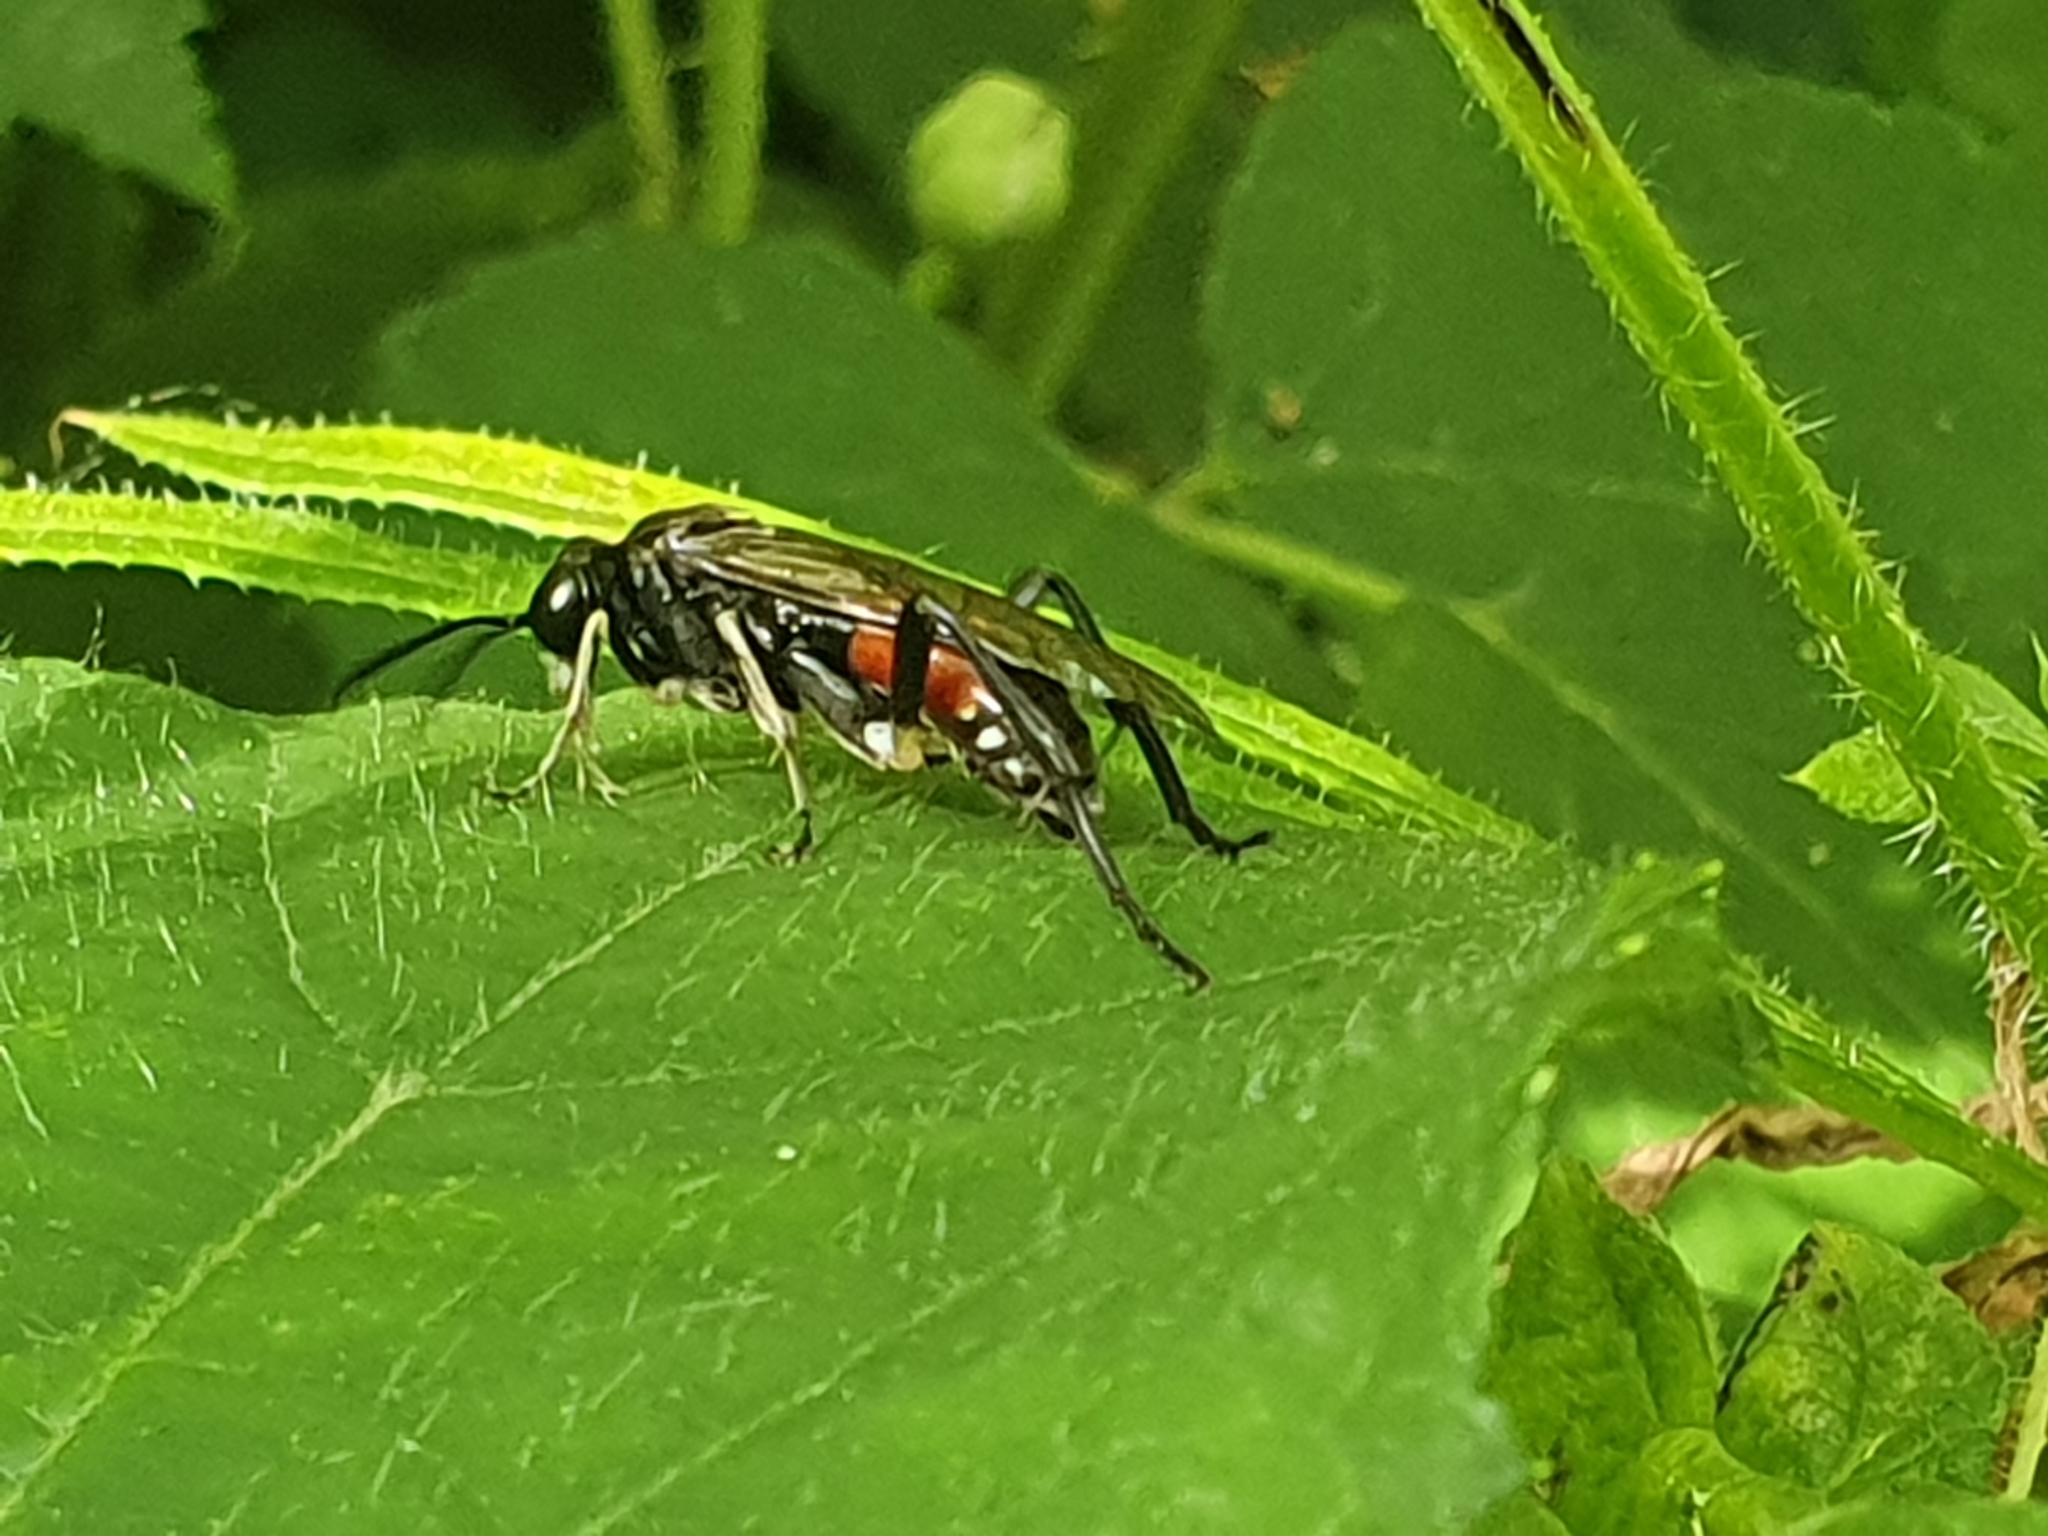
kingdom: Animalia
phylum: Arthropoda
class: Insecta
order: Hymenoptera
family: Tenthredinidae
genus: Macrophya
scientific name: Macrophya militaris
